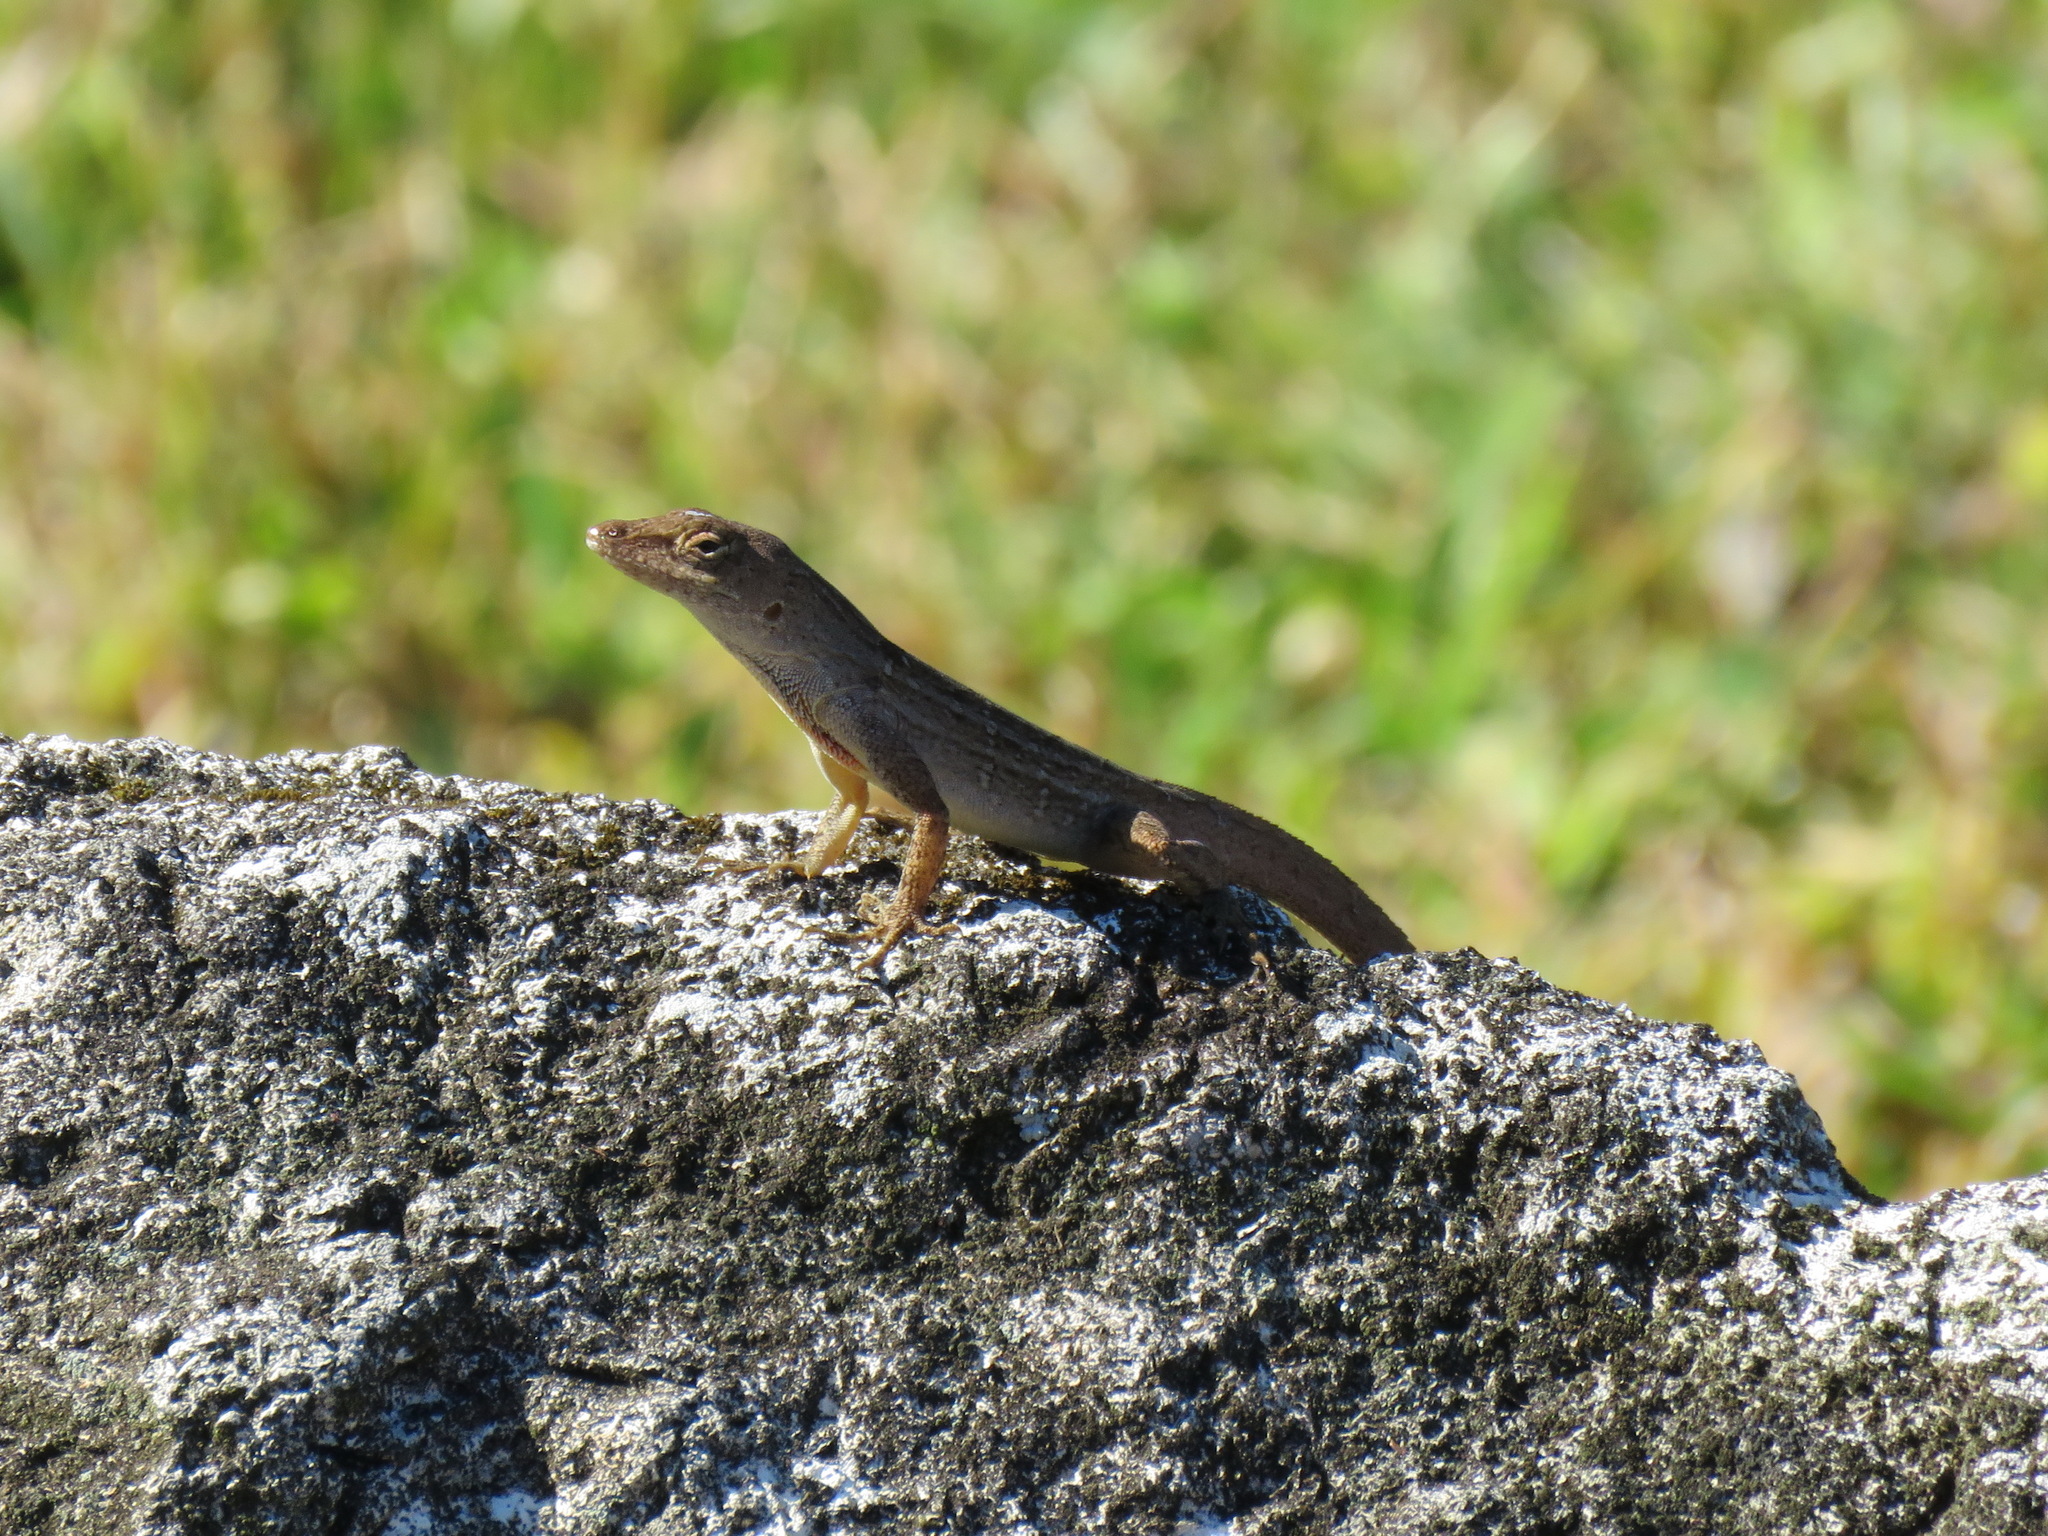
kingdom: Animalia
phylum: Chordata
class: Squamata
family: Dactyloidae
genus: Anolis
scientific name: Anolis sagrei
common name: Brown anole
